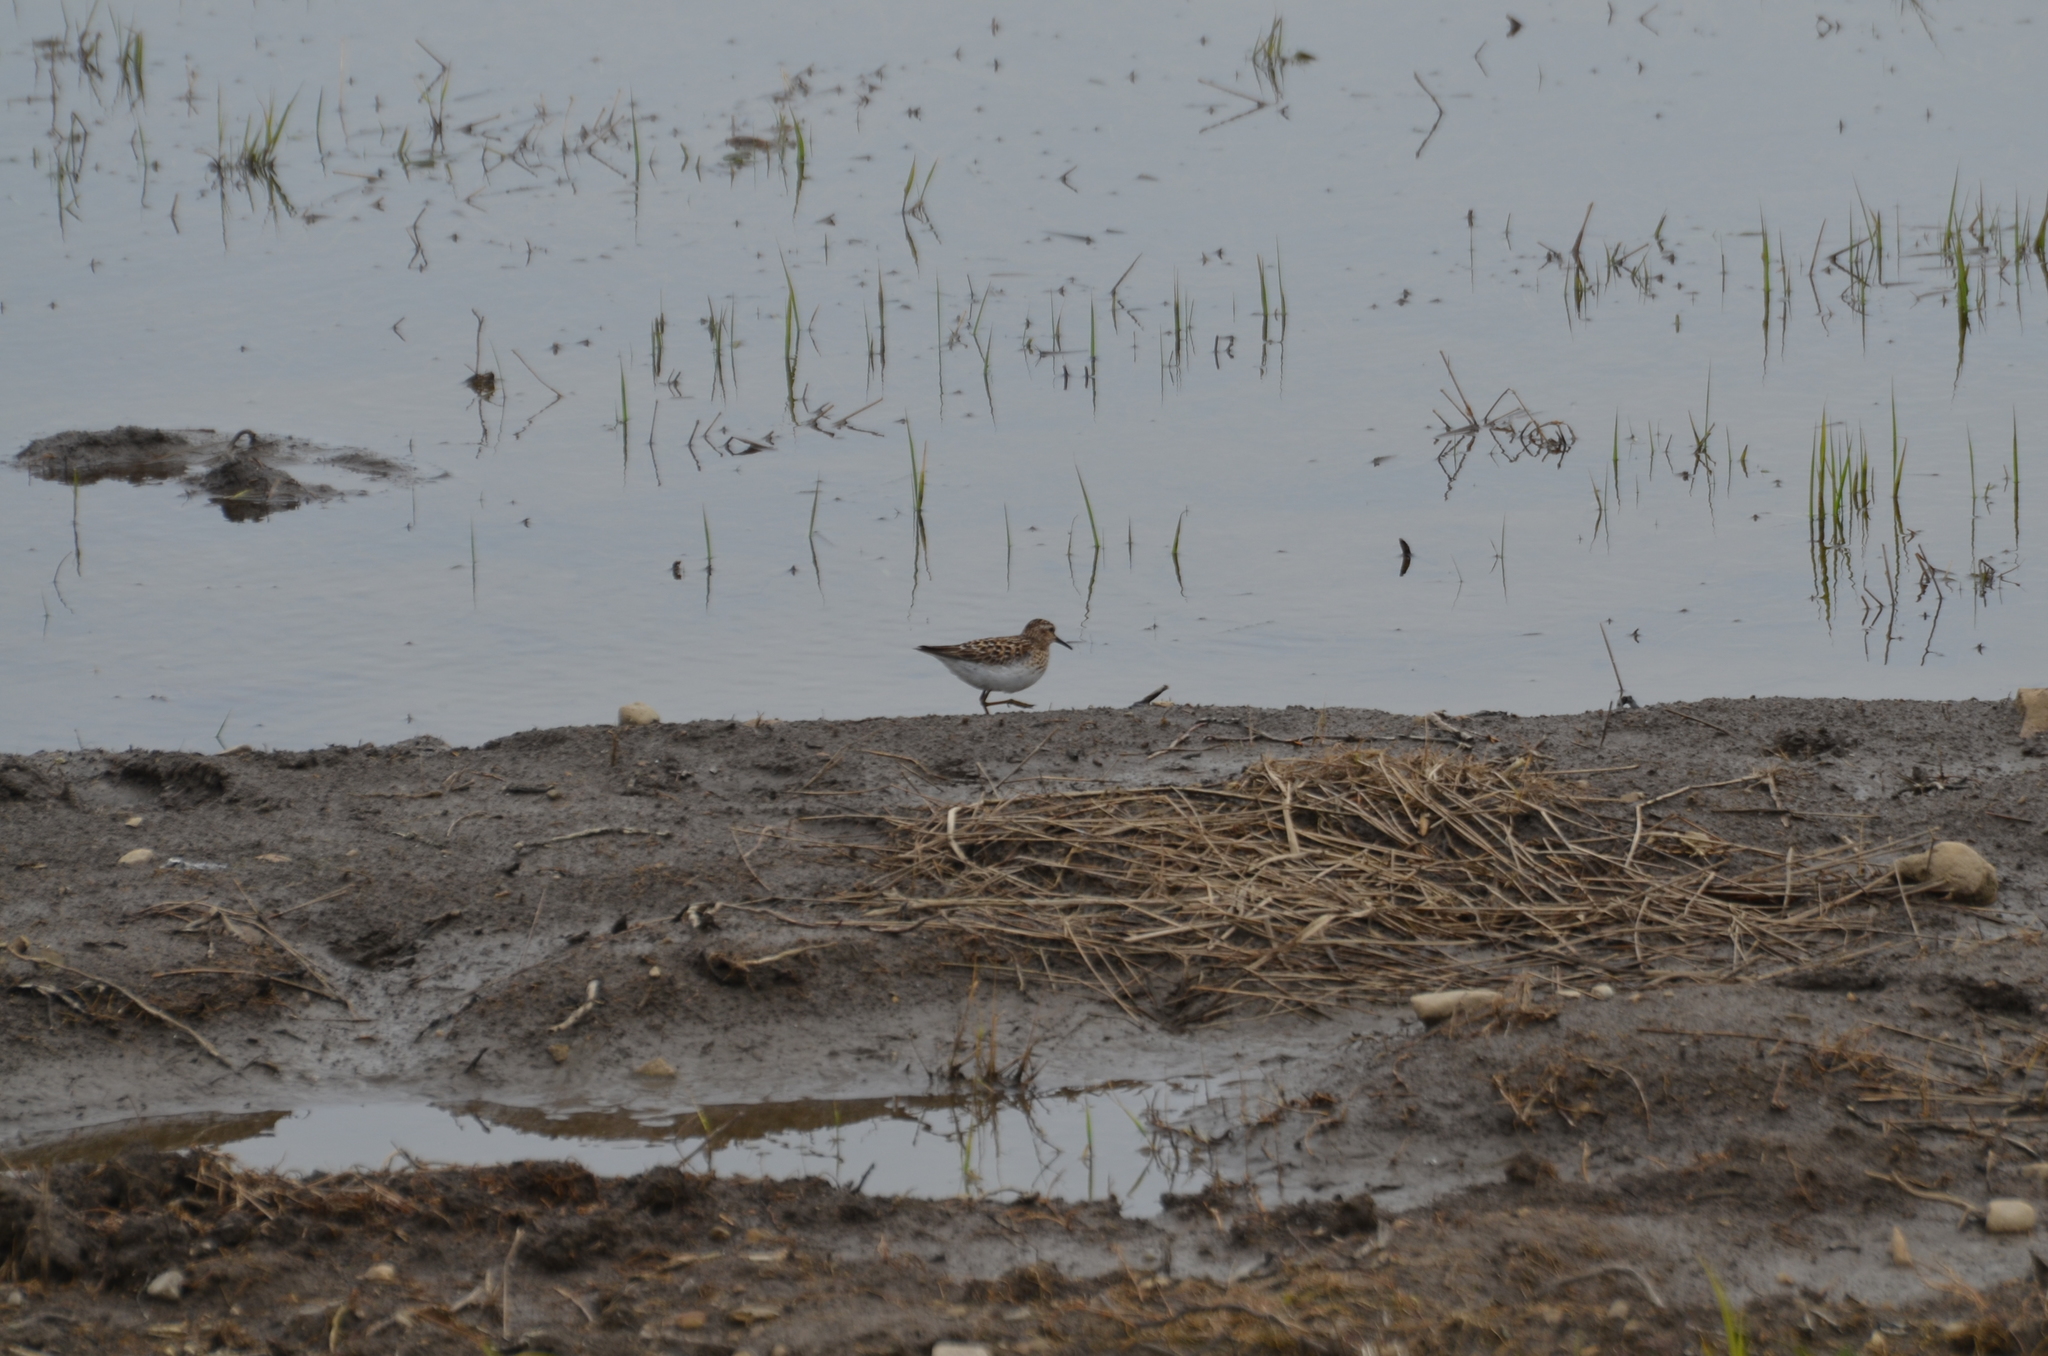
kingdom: Animalia
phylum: Chordata
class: Aves
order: Charadriiformes
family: Scolopacidae
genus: Calidris
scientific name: Calidris minutilla
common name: Least sandpiper
